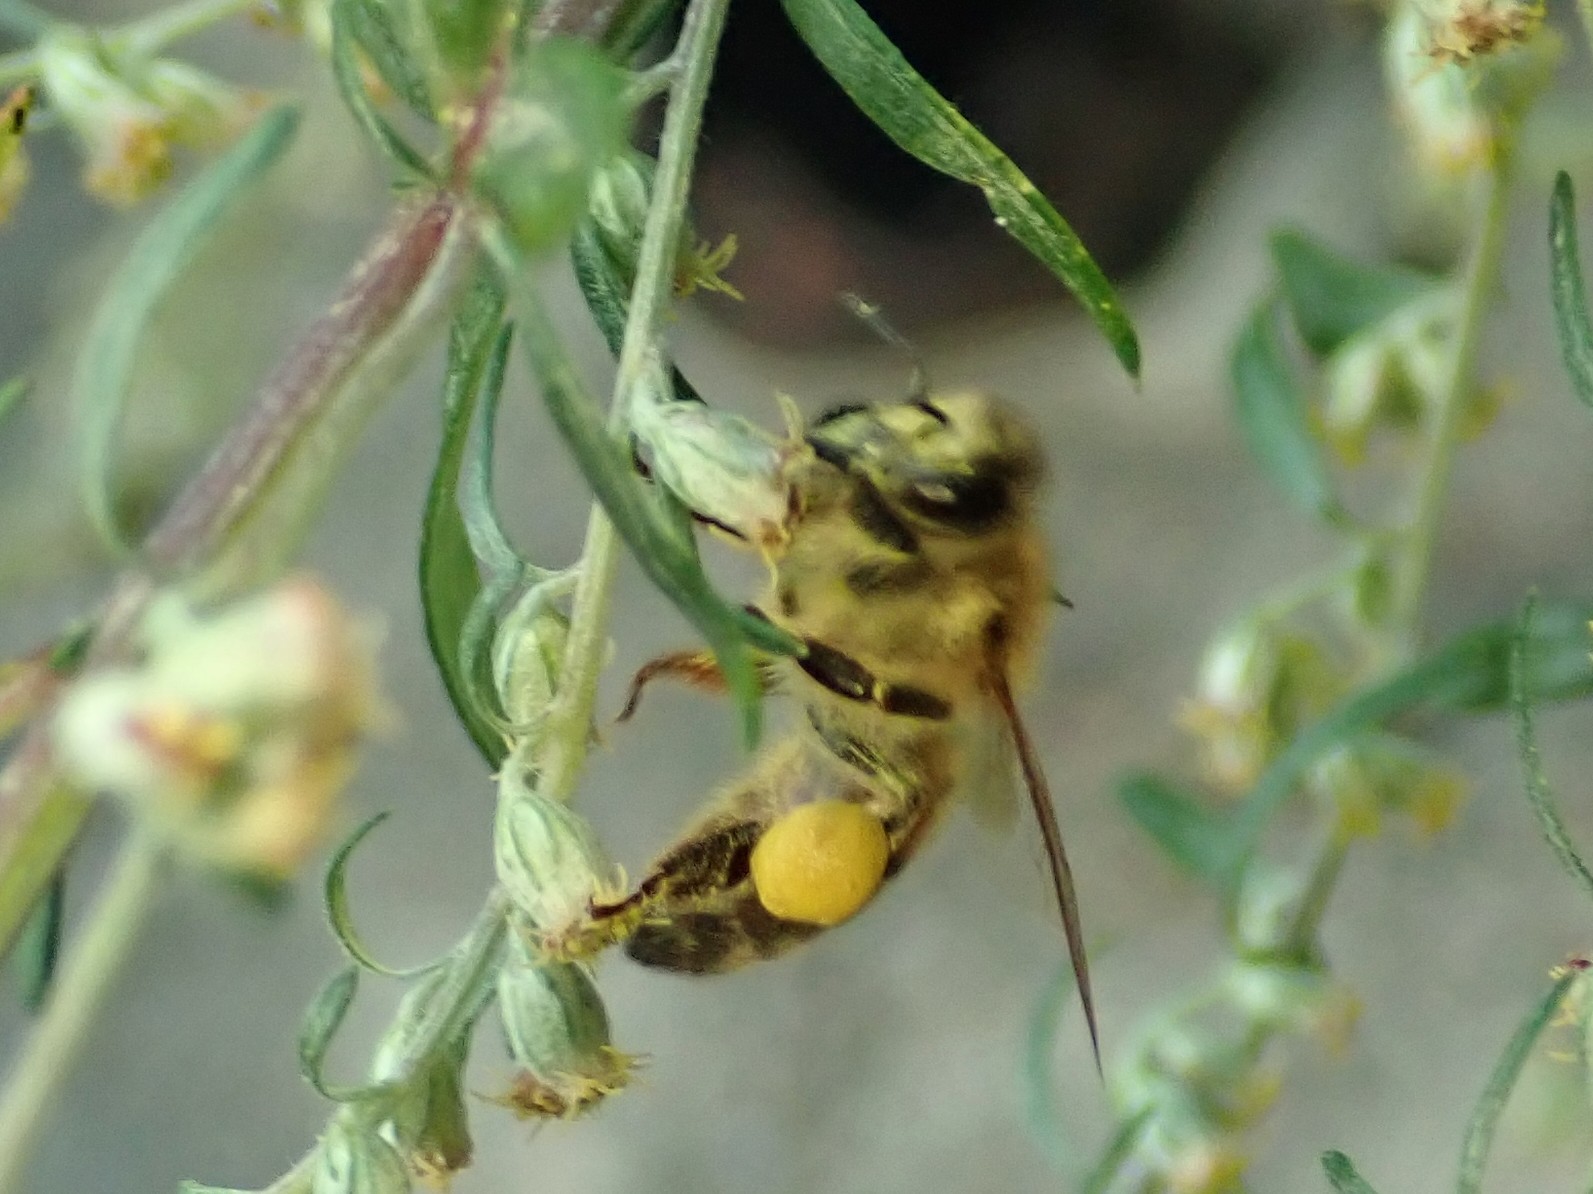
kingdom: Animalia
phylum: Arthropoda
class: Insecta
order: Hymenoptera
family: Apidae
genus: Apis
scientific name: Apis mellifera
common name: Honey bee
